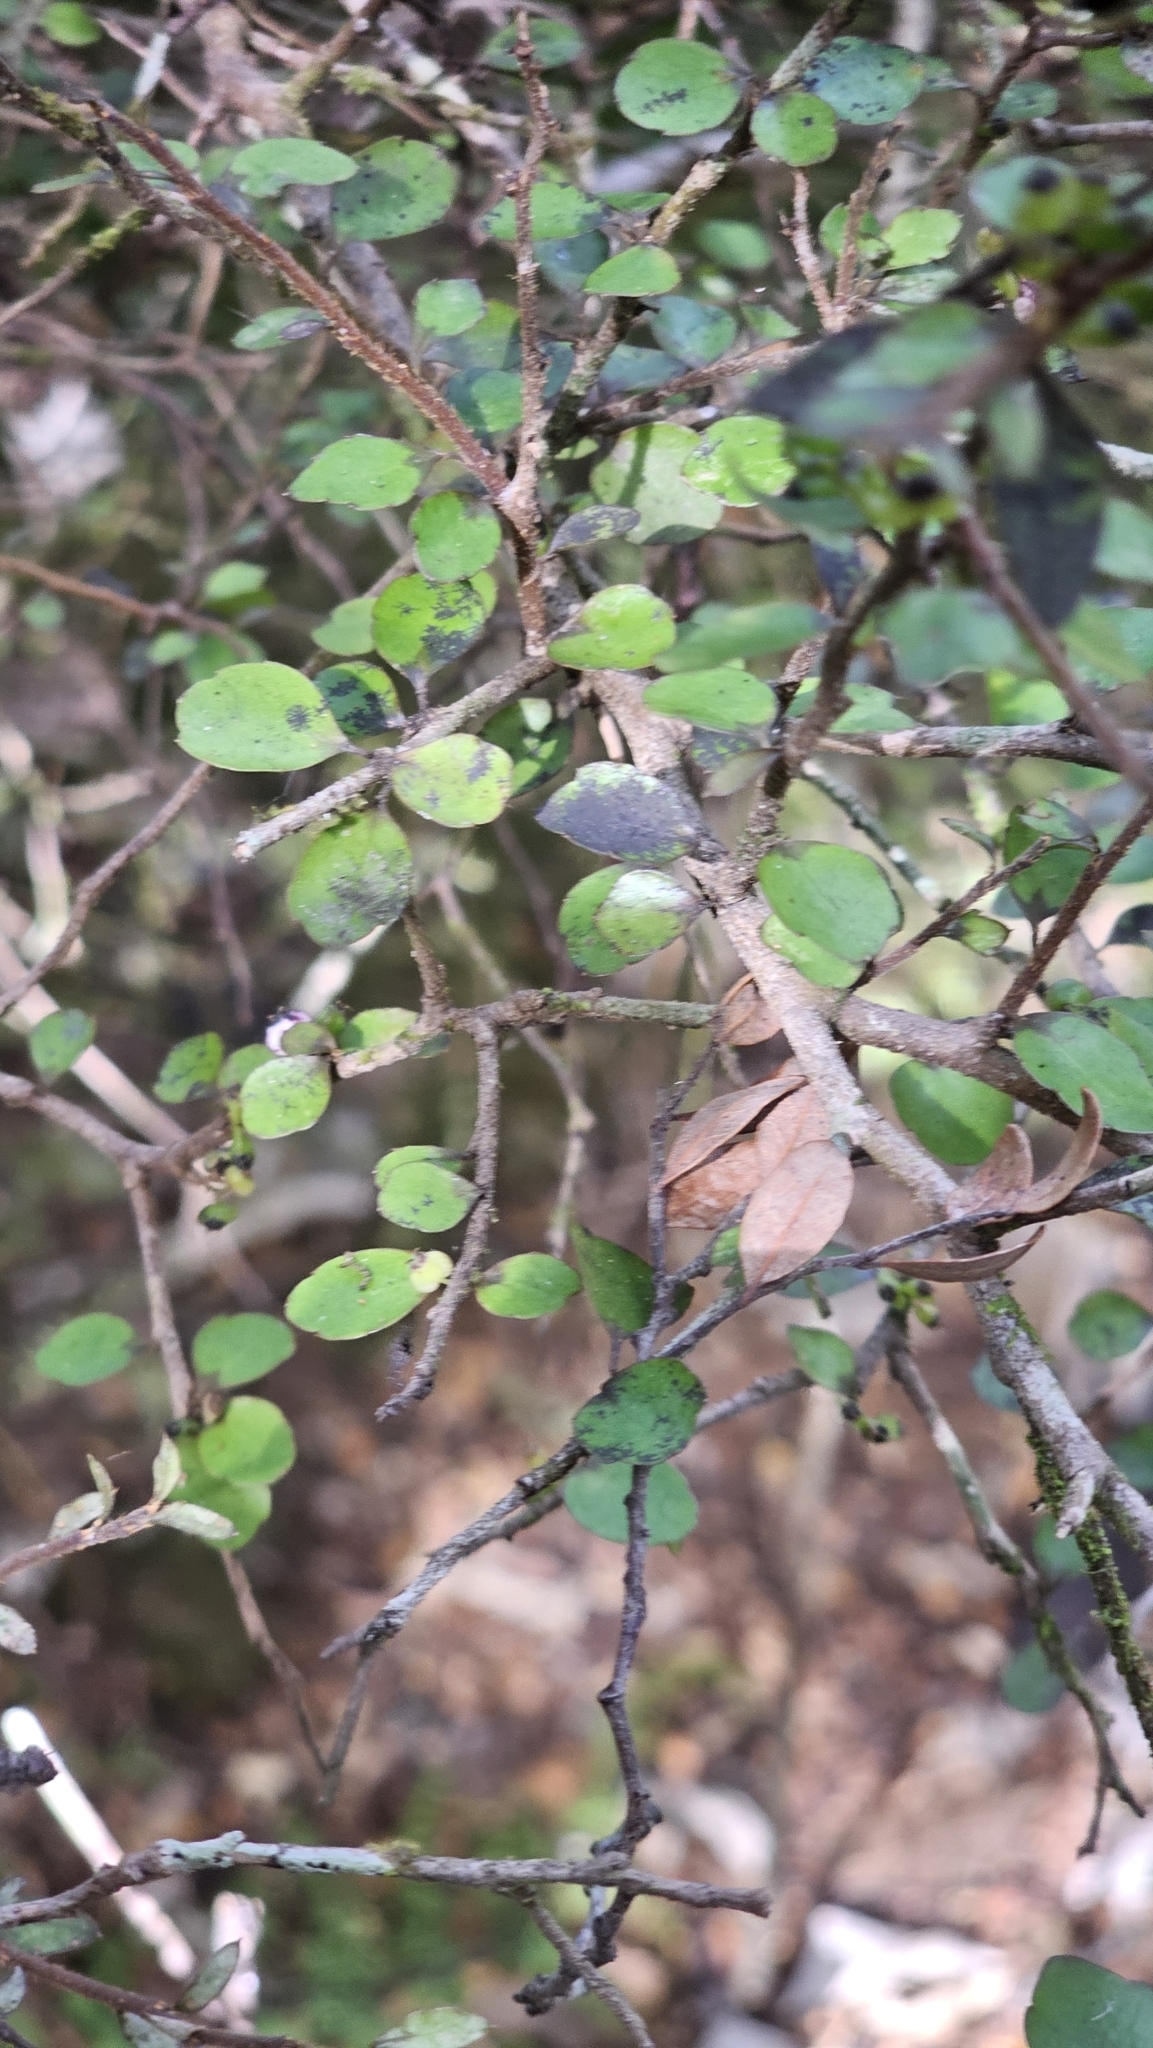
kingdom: Plantae
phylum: Tracheophyta
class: Magnoliopsida
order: Apiales
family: Araliaceae
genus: Raukaua
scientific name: Raukaua anomalus
